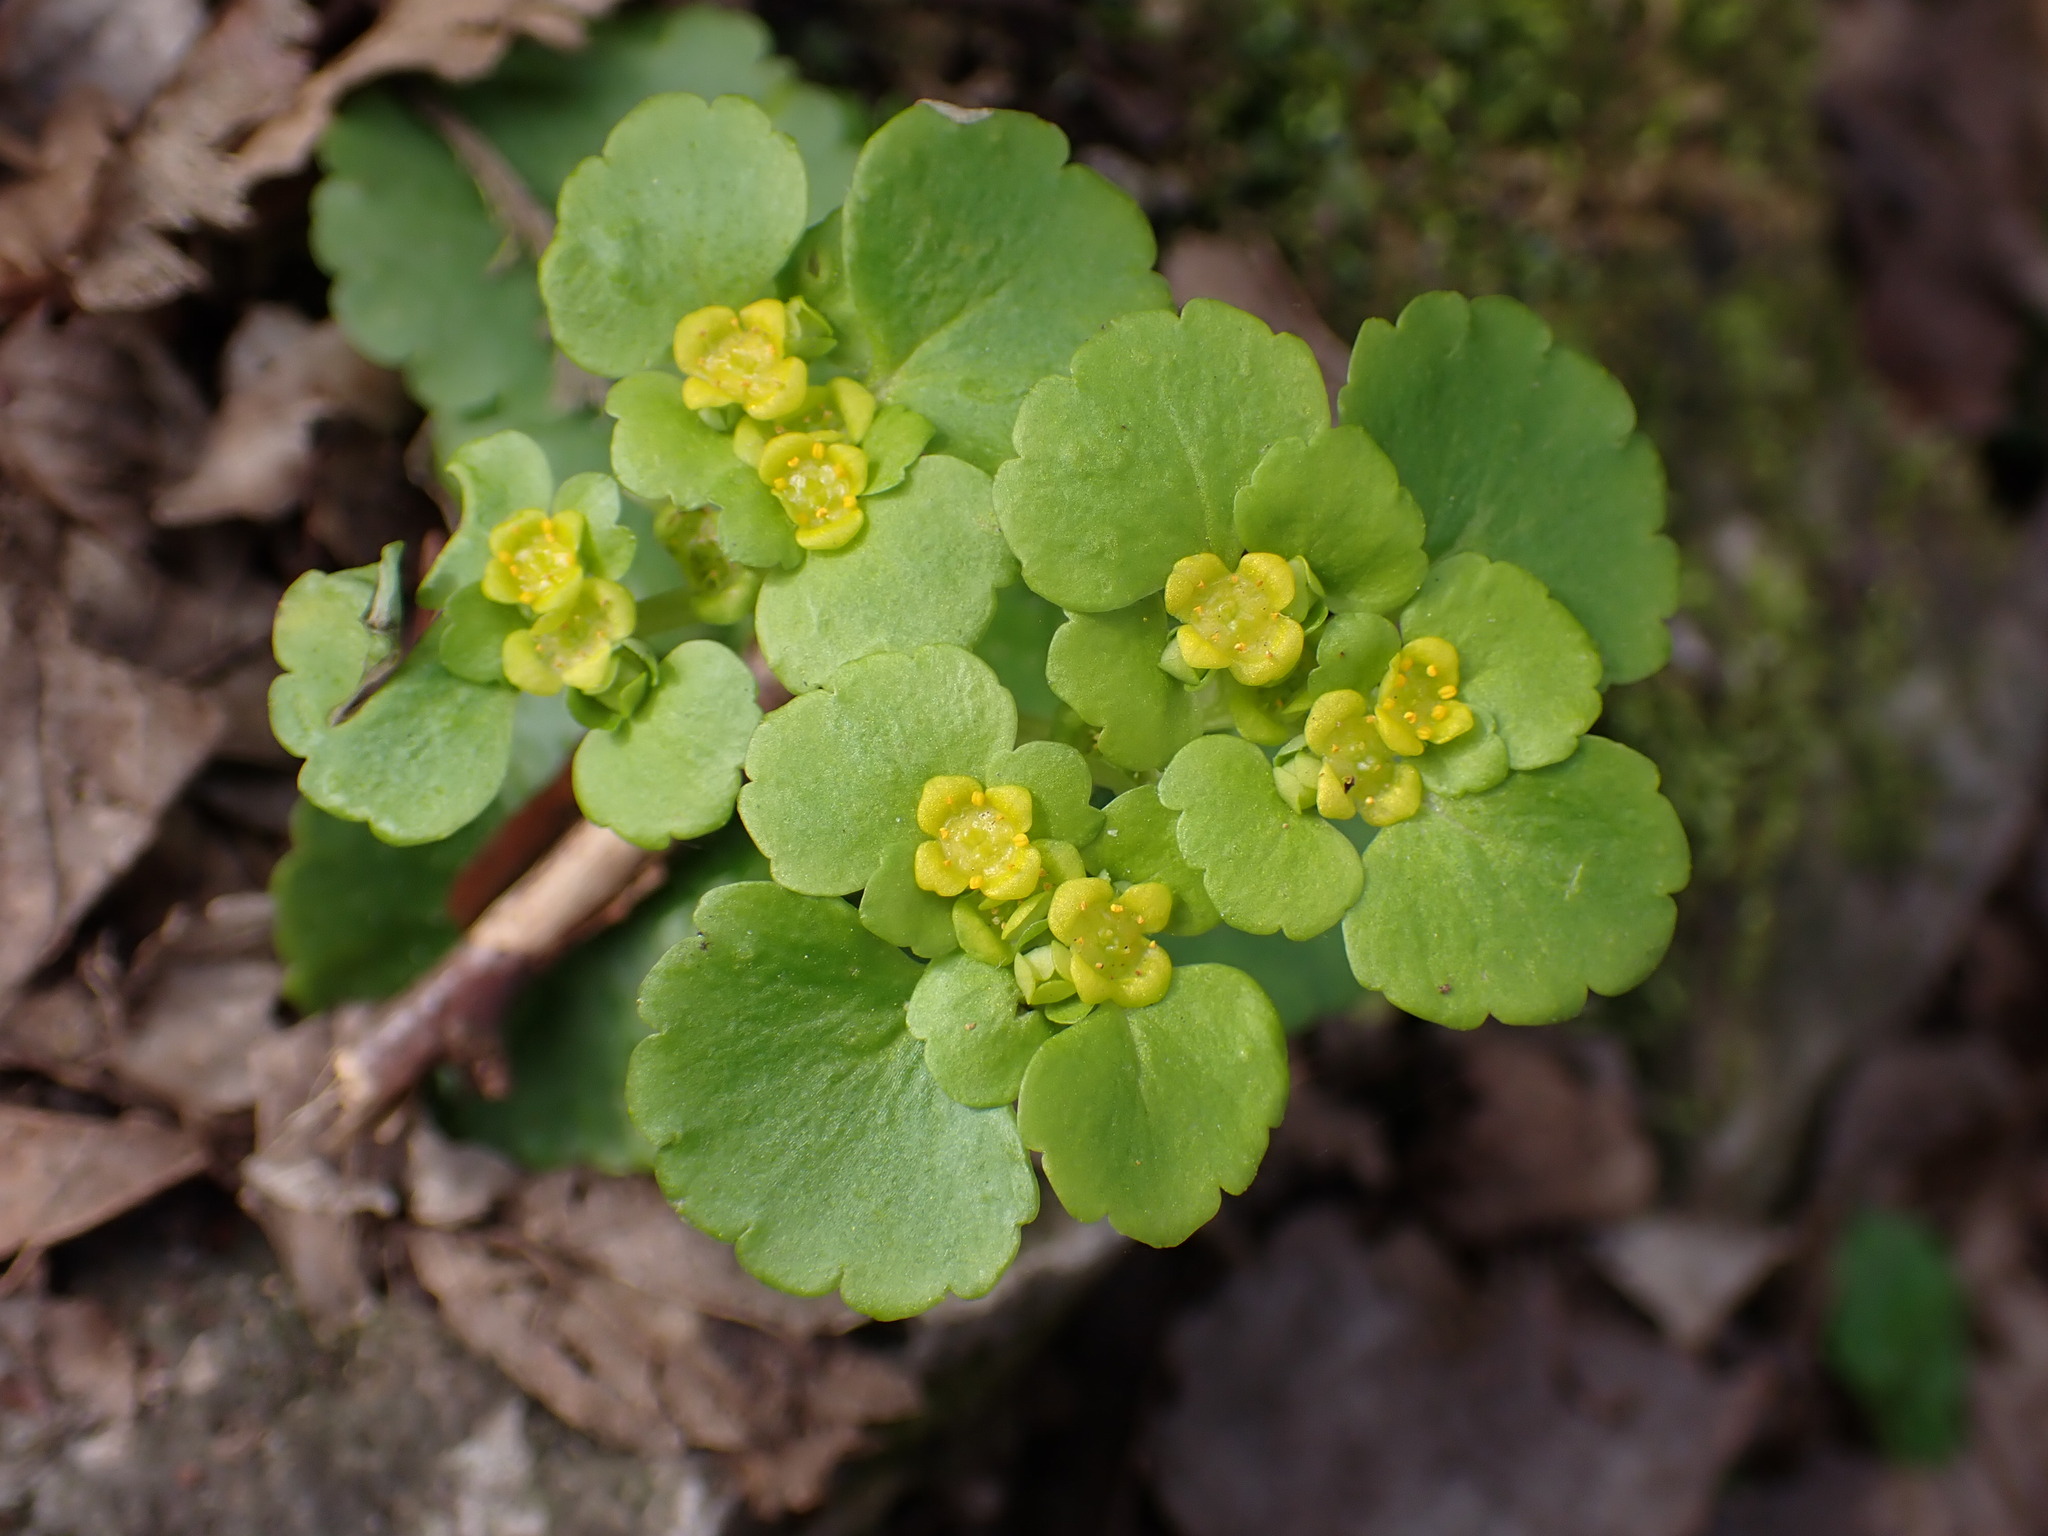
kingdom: Plantae
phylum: Tracheophyta
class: Magnoliopsida
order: Saxifragales
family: Saxifragaceae
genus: Chrysosplenium
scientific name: Chrysosplenium alternifolium
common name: Alternate-leaved golden-saxifrage
